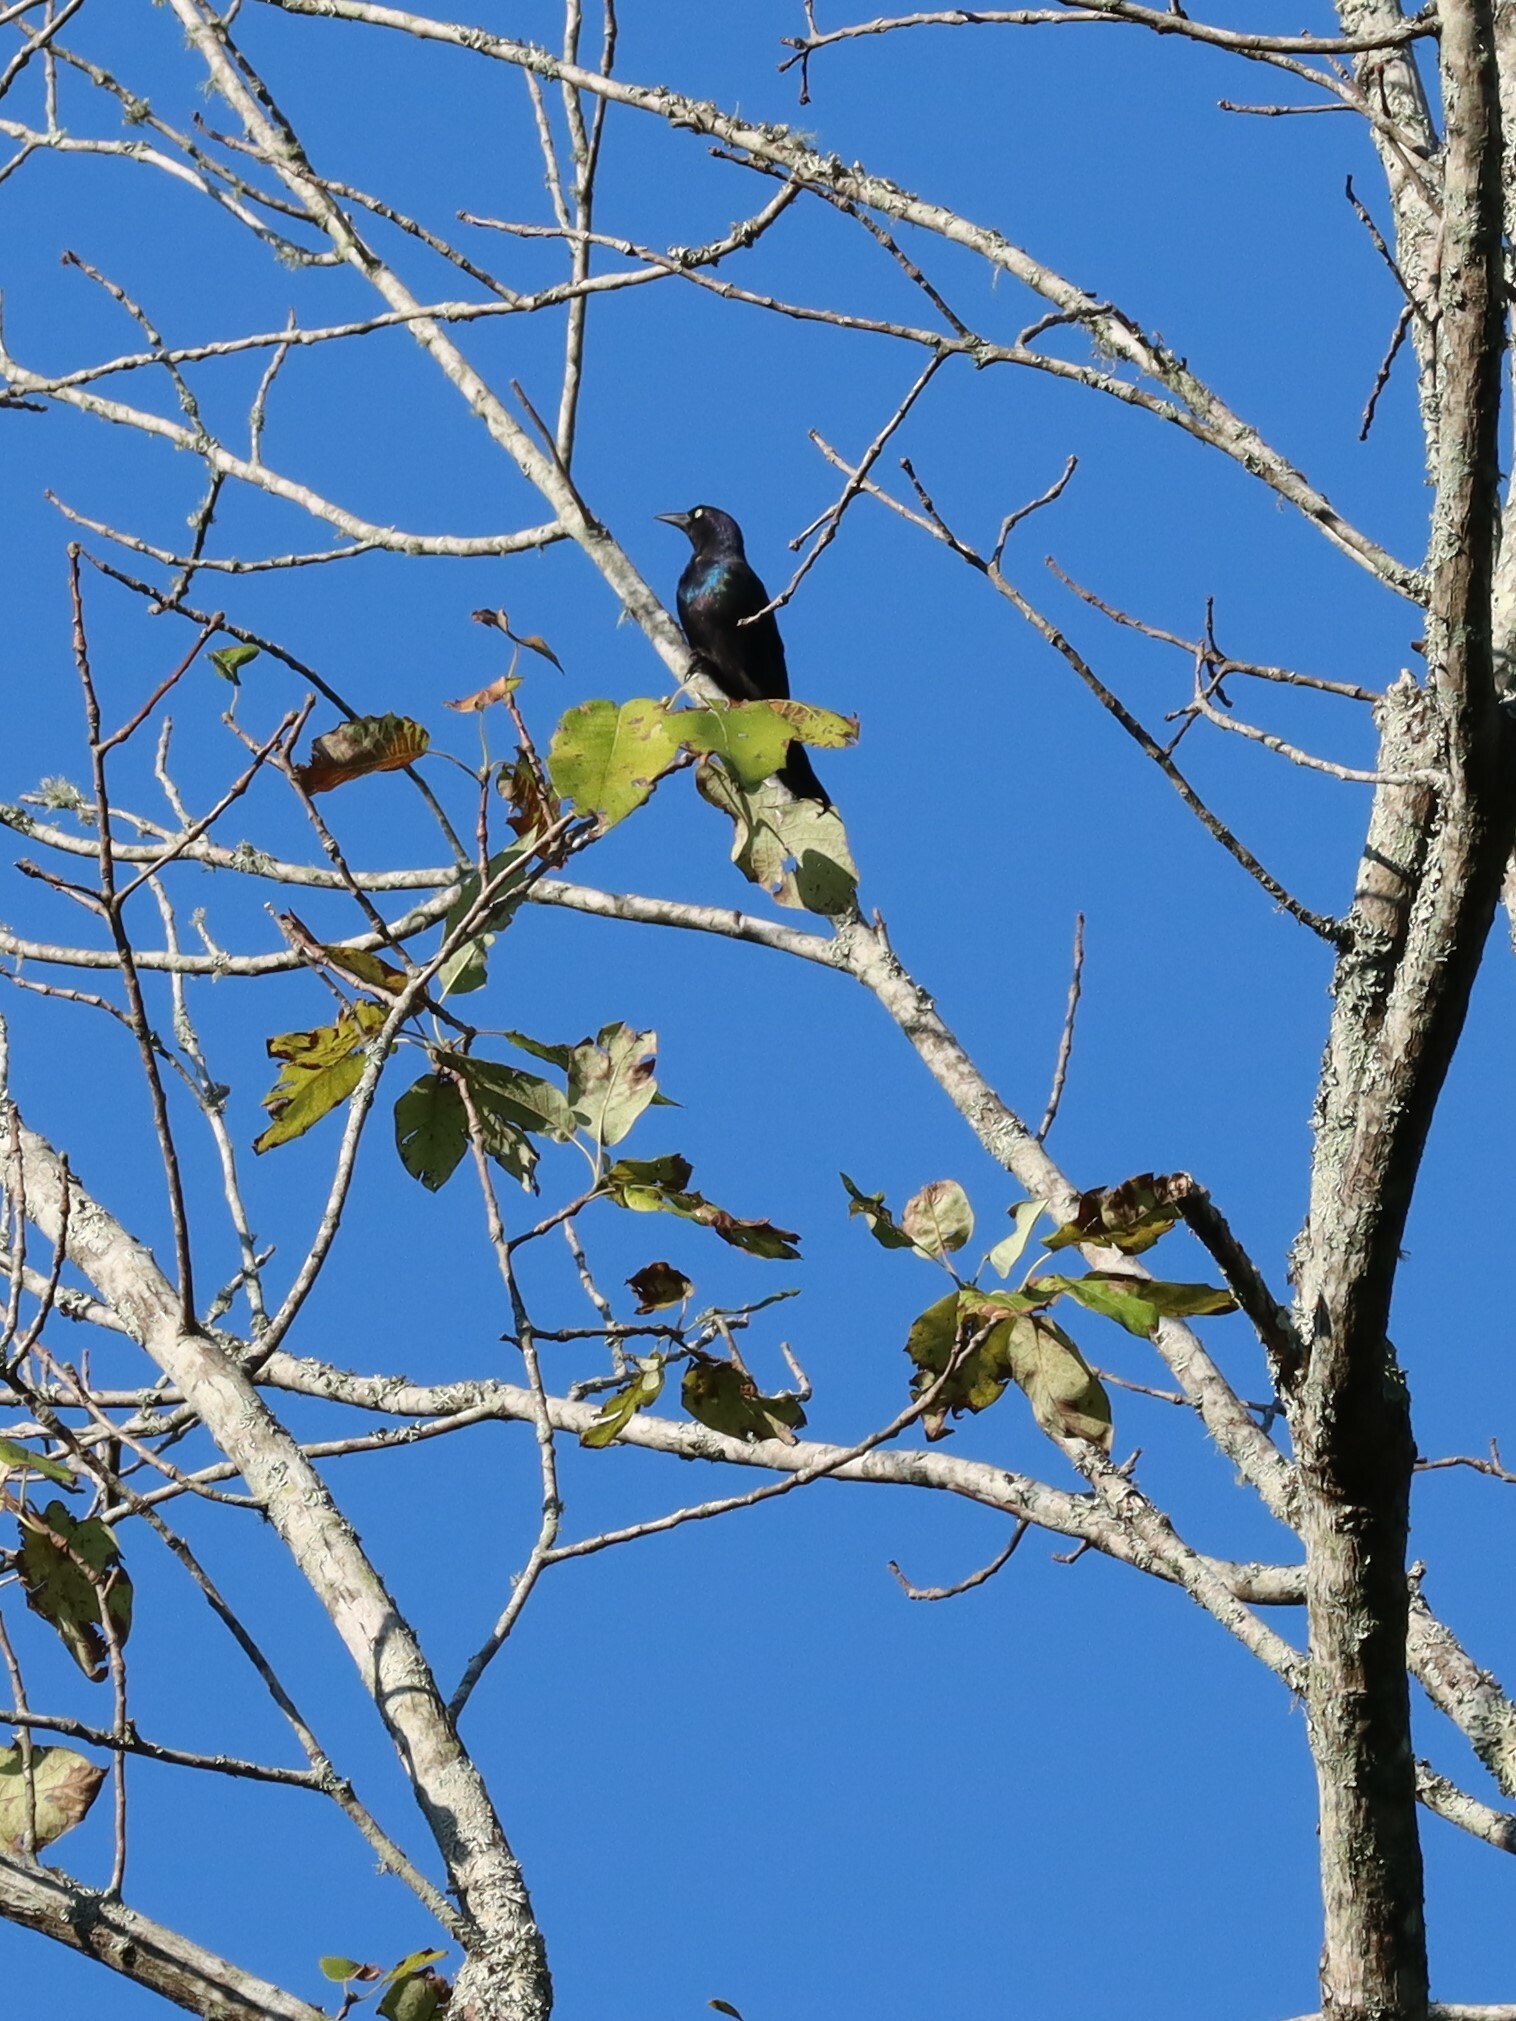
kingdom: Animalia
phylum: Chordata
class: Aves
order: Passeriformes
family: Icteridae
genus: Quiscalus
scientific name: Quiscalus quiscula
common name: Common grackle
